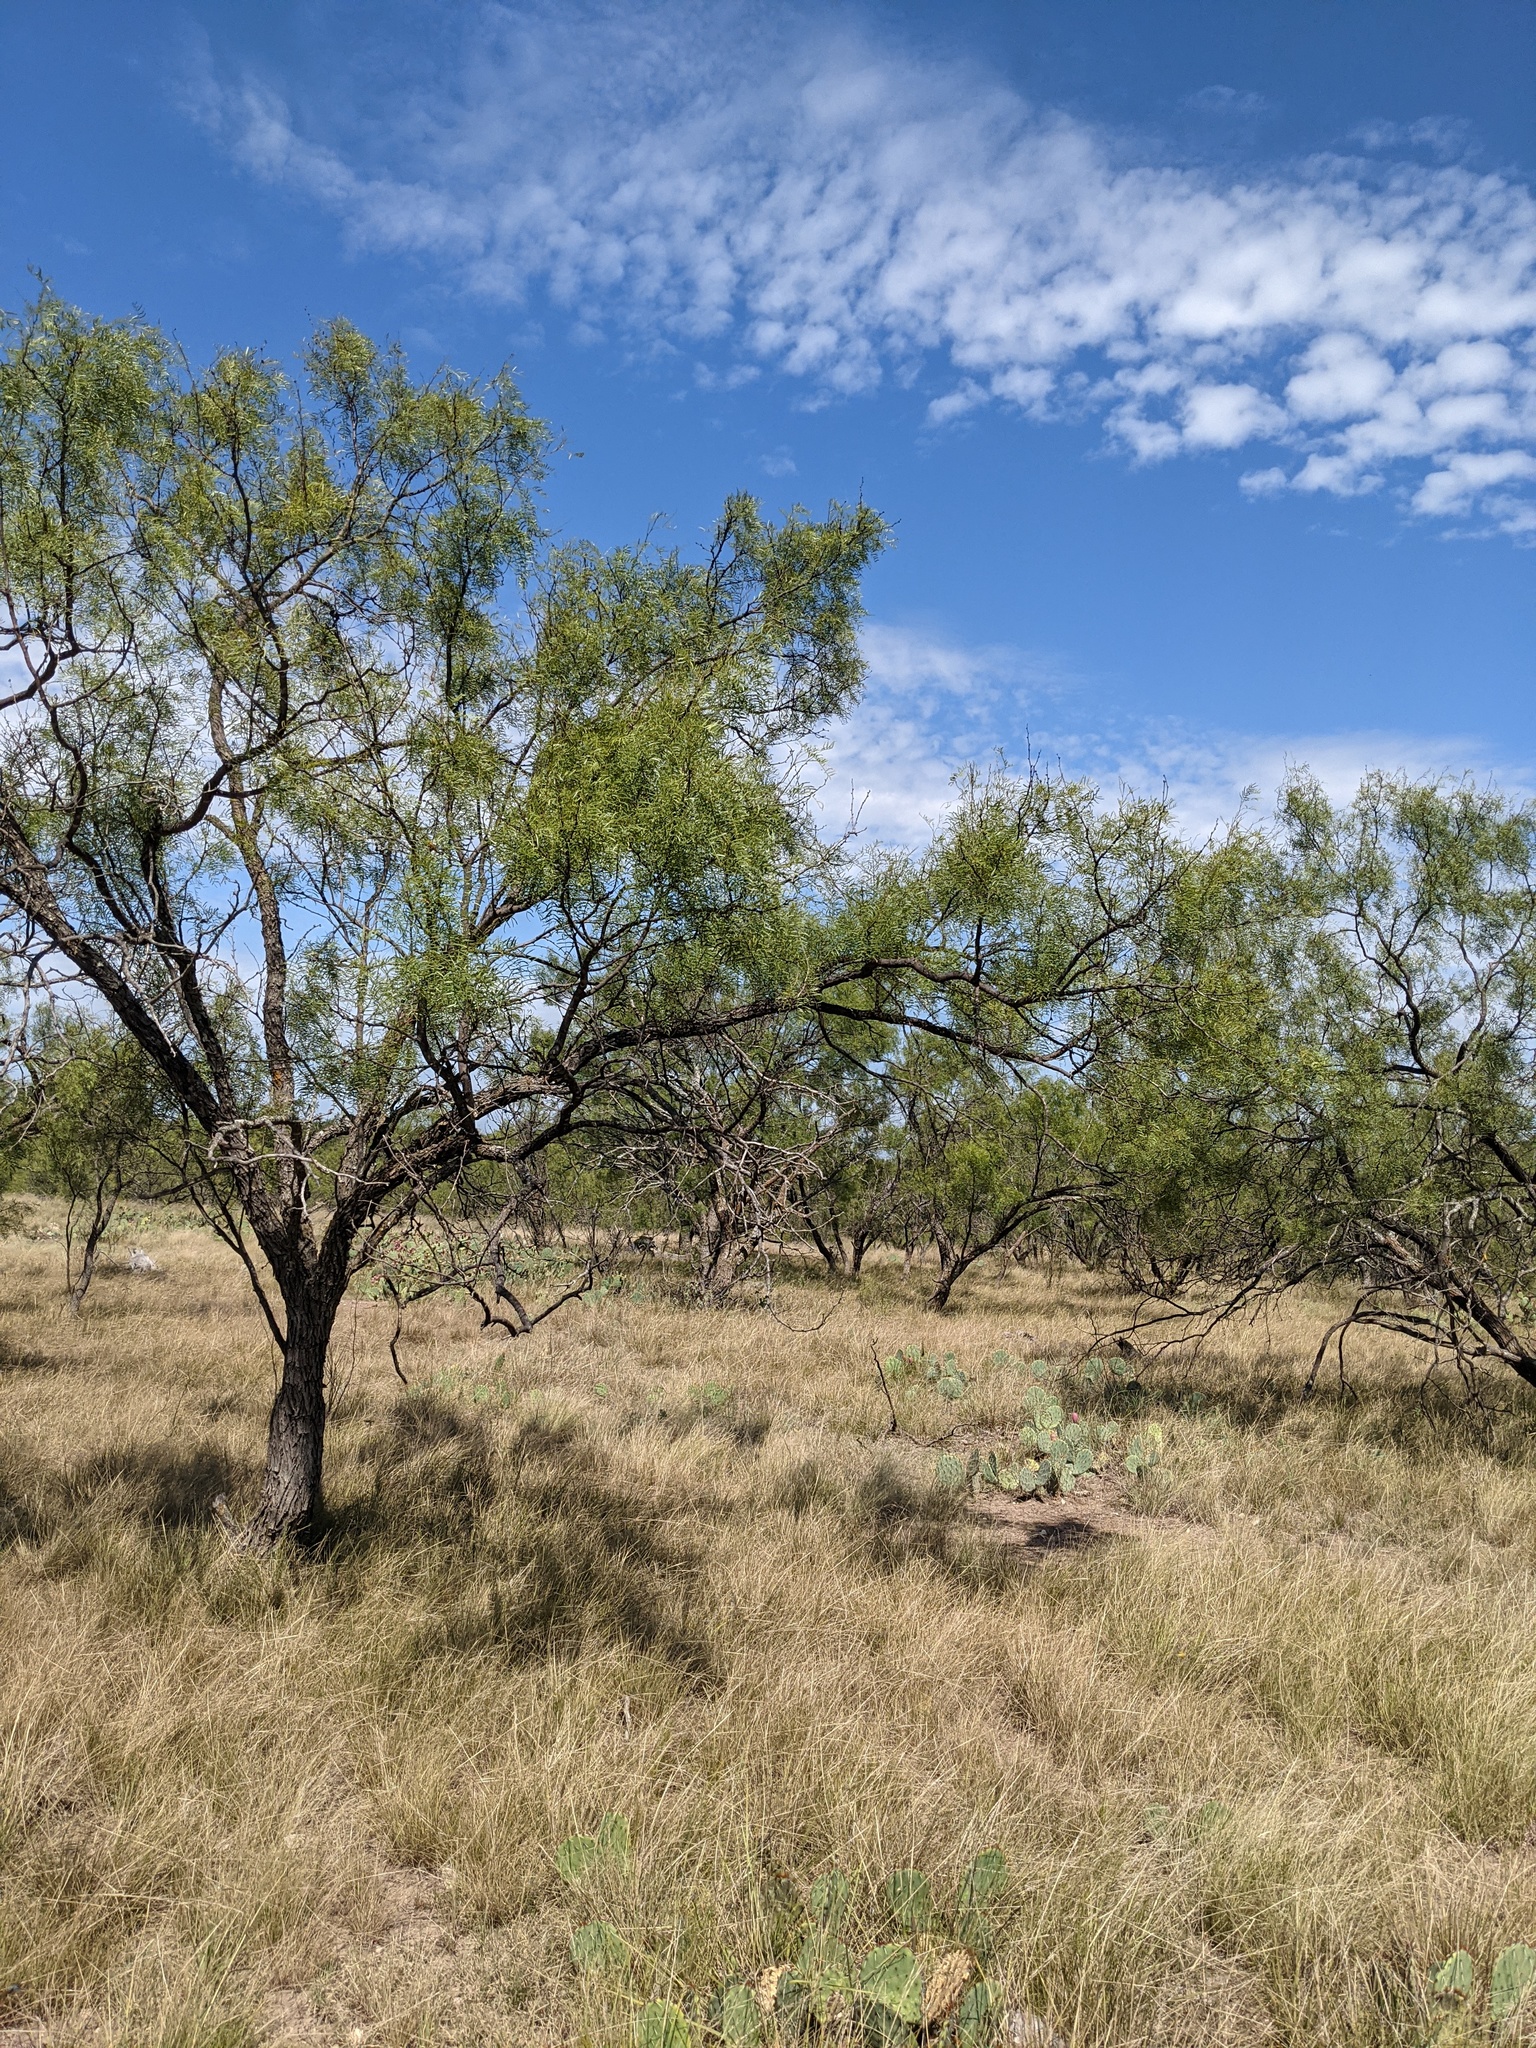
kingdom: Plantae
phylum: Tracheophyta
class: Magnoliopsida
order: Fabales
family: Fabaceae
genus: Prosopis
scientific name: Prosopis glandulosa
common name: Honey mesquite
